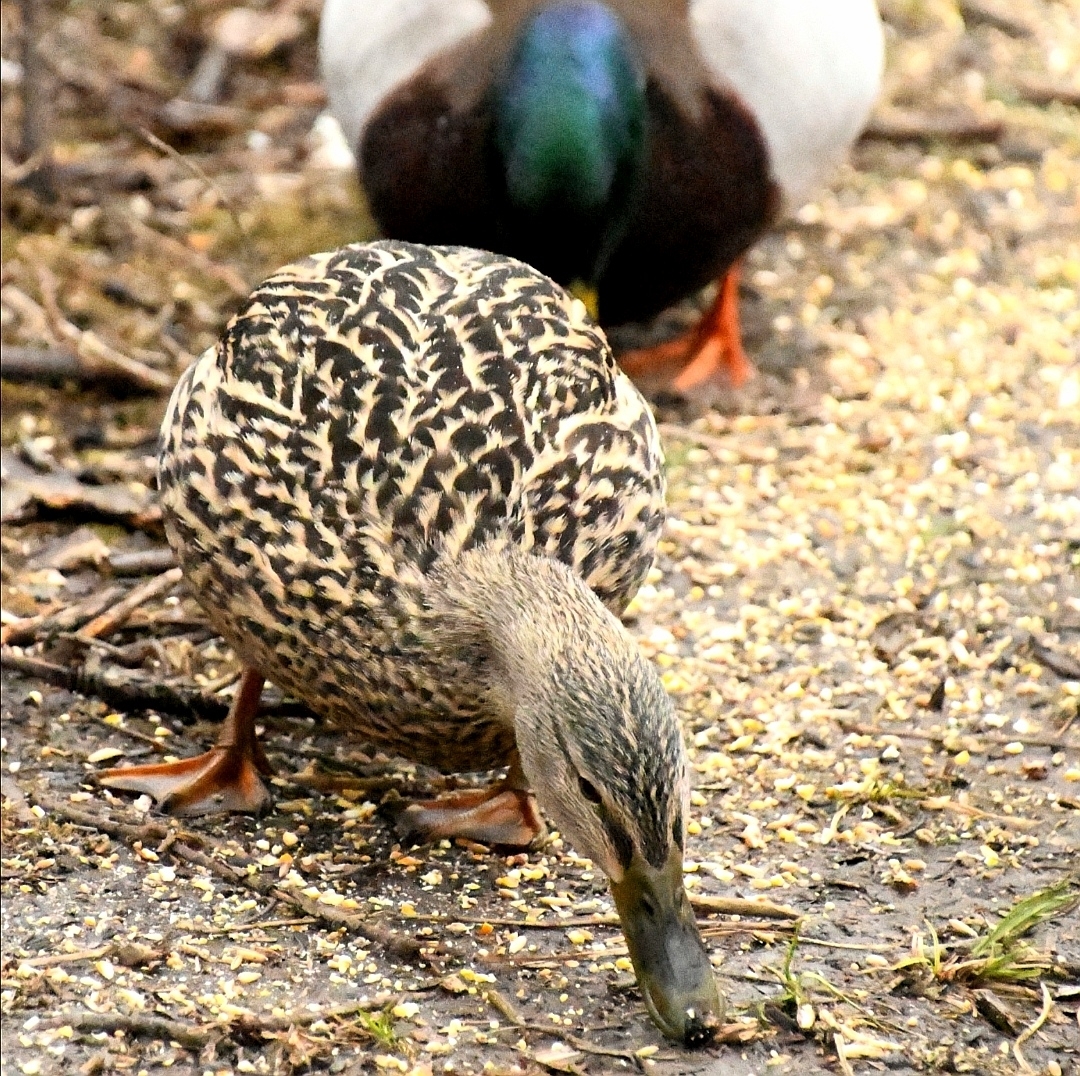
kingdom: Animalia
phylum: Chordata
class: Aves
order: Anseriformes
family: Anatidae
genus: Anas
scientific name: Anas platyrhynchos
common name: Mallard
